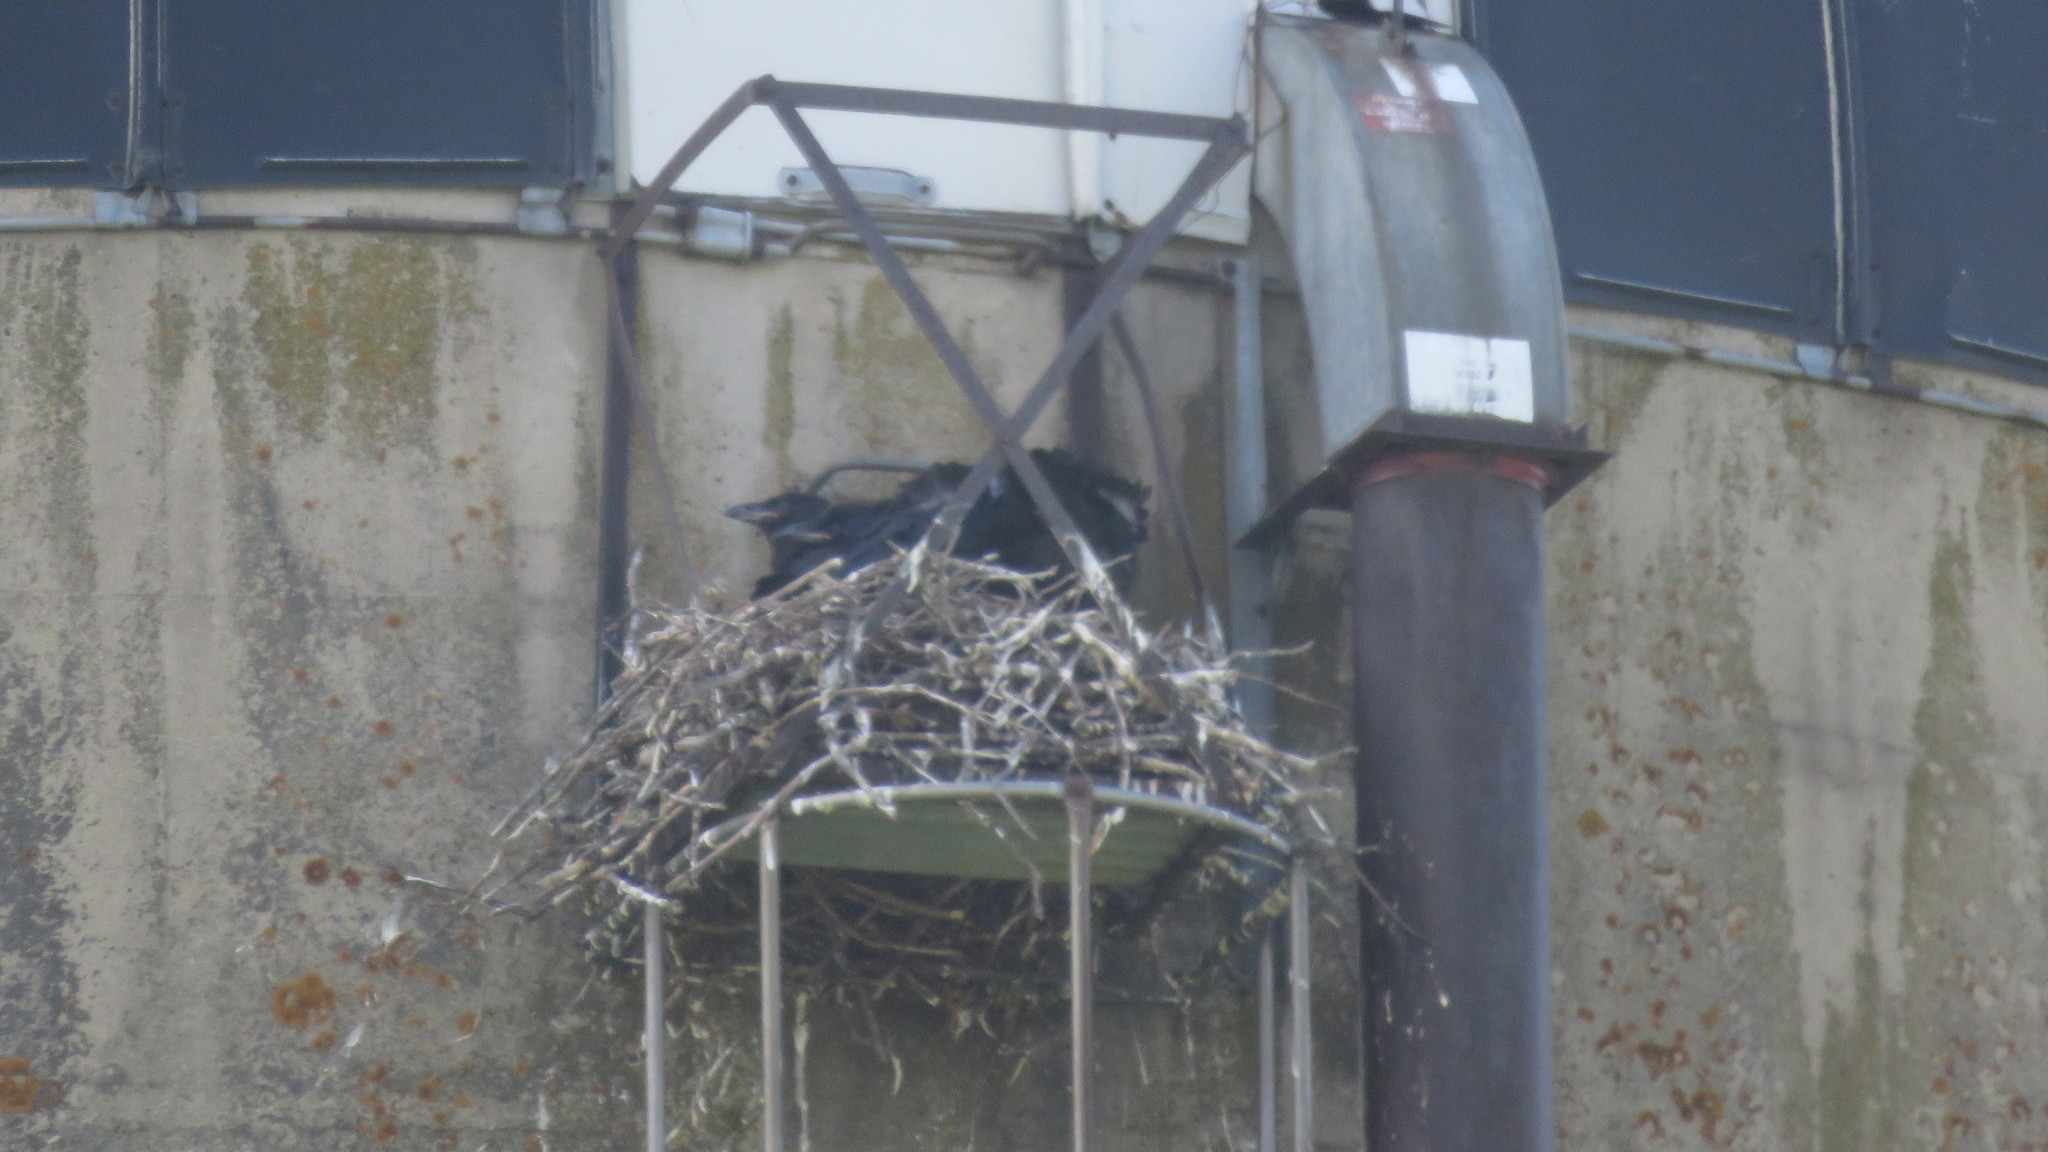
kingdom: Animalia
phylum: Chordata
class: Aves
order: Passeriformes
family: Corvidae
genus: Corvus
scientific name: Corvus corax
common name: Common raven
